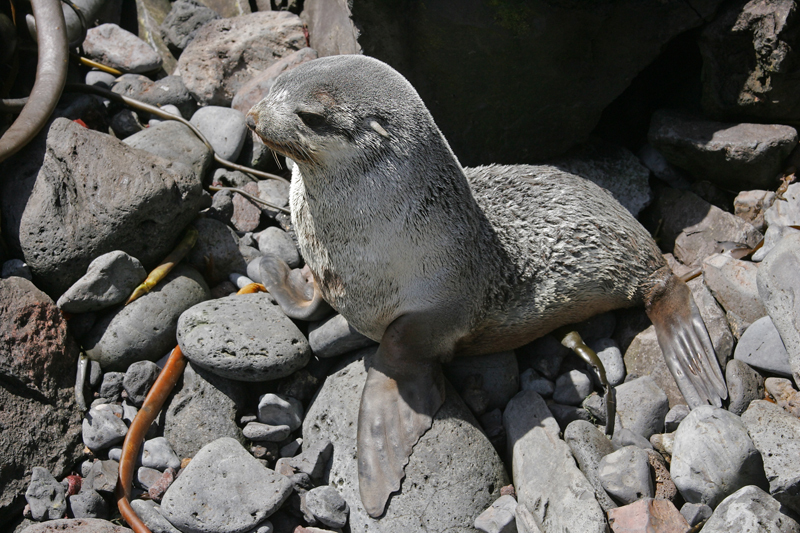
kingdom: Animalia
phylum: Chordata
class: Mammalia
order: Carnivora
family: Otariidae
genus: Arctocephalus
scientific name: Arctocephalus tropicalis
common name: Subantarctic fur seal
